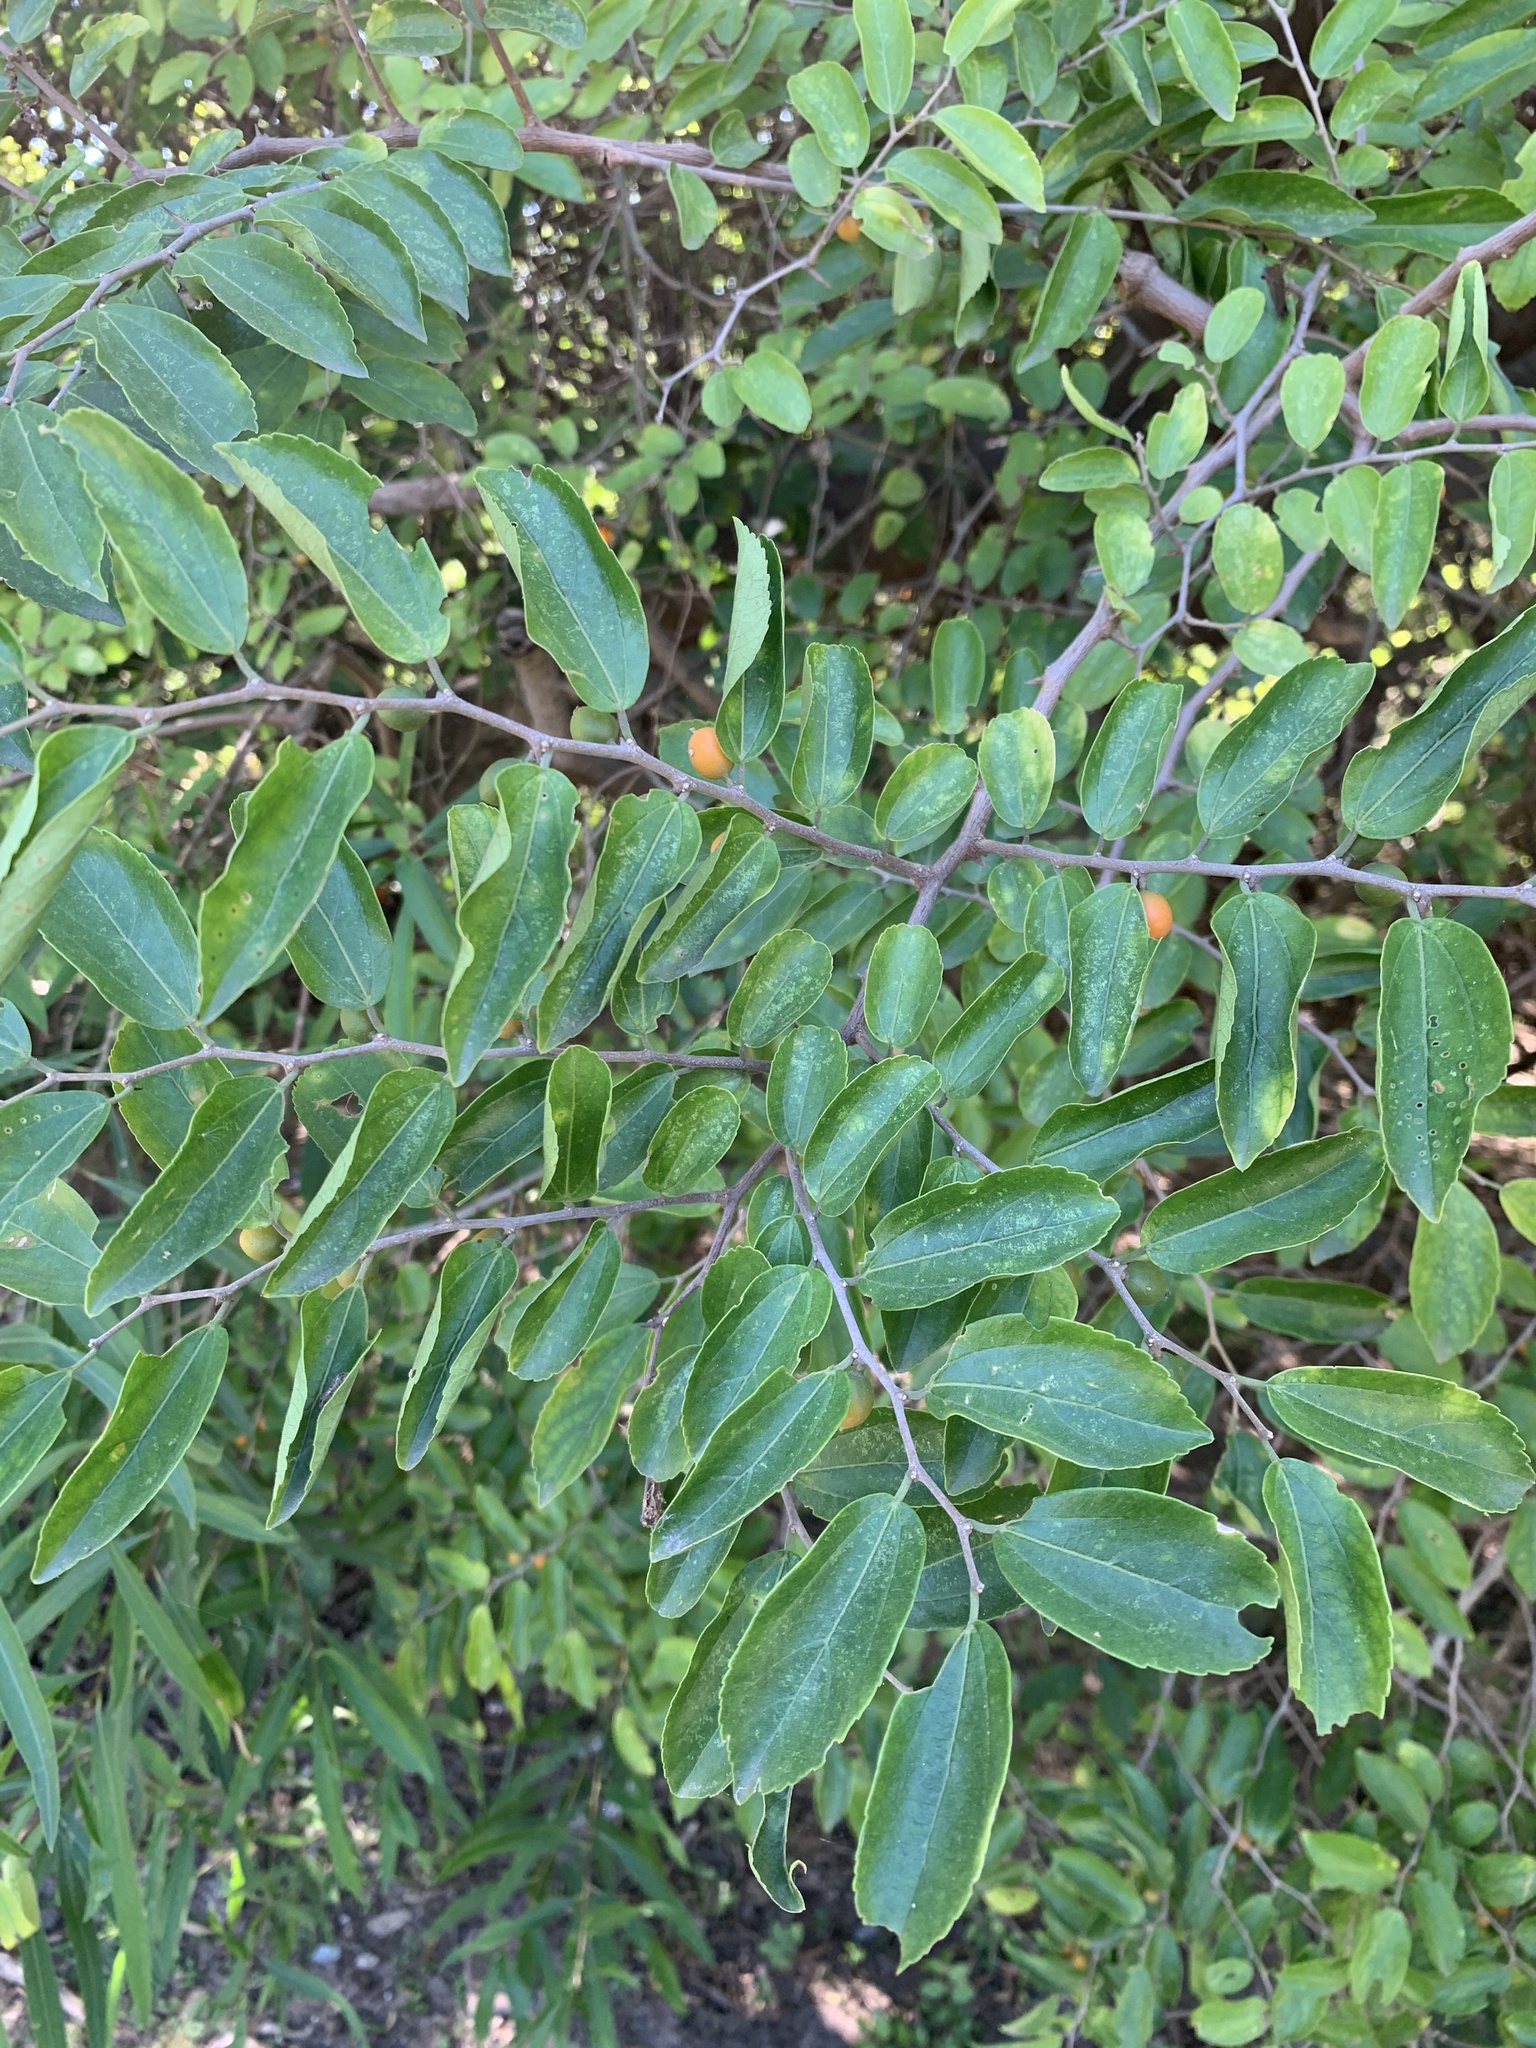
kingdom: Plantae
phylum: Tracheophyta
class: Magnoliopsida
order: Rosales
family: Cannabaceae
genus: Celtis
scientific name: Celtis iguanaea
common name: Iguana hackberry
